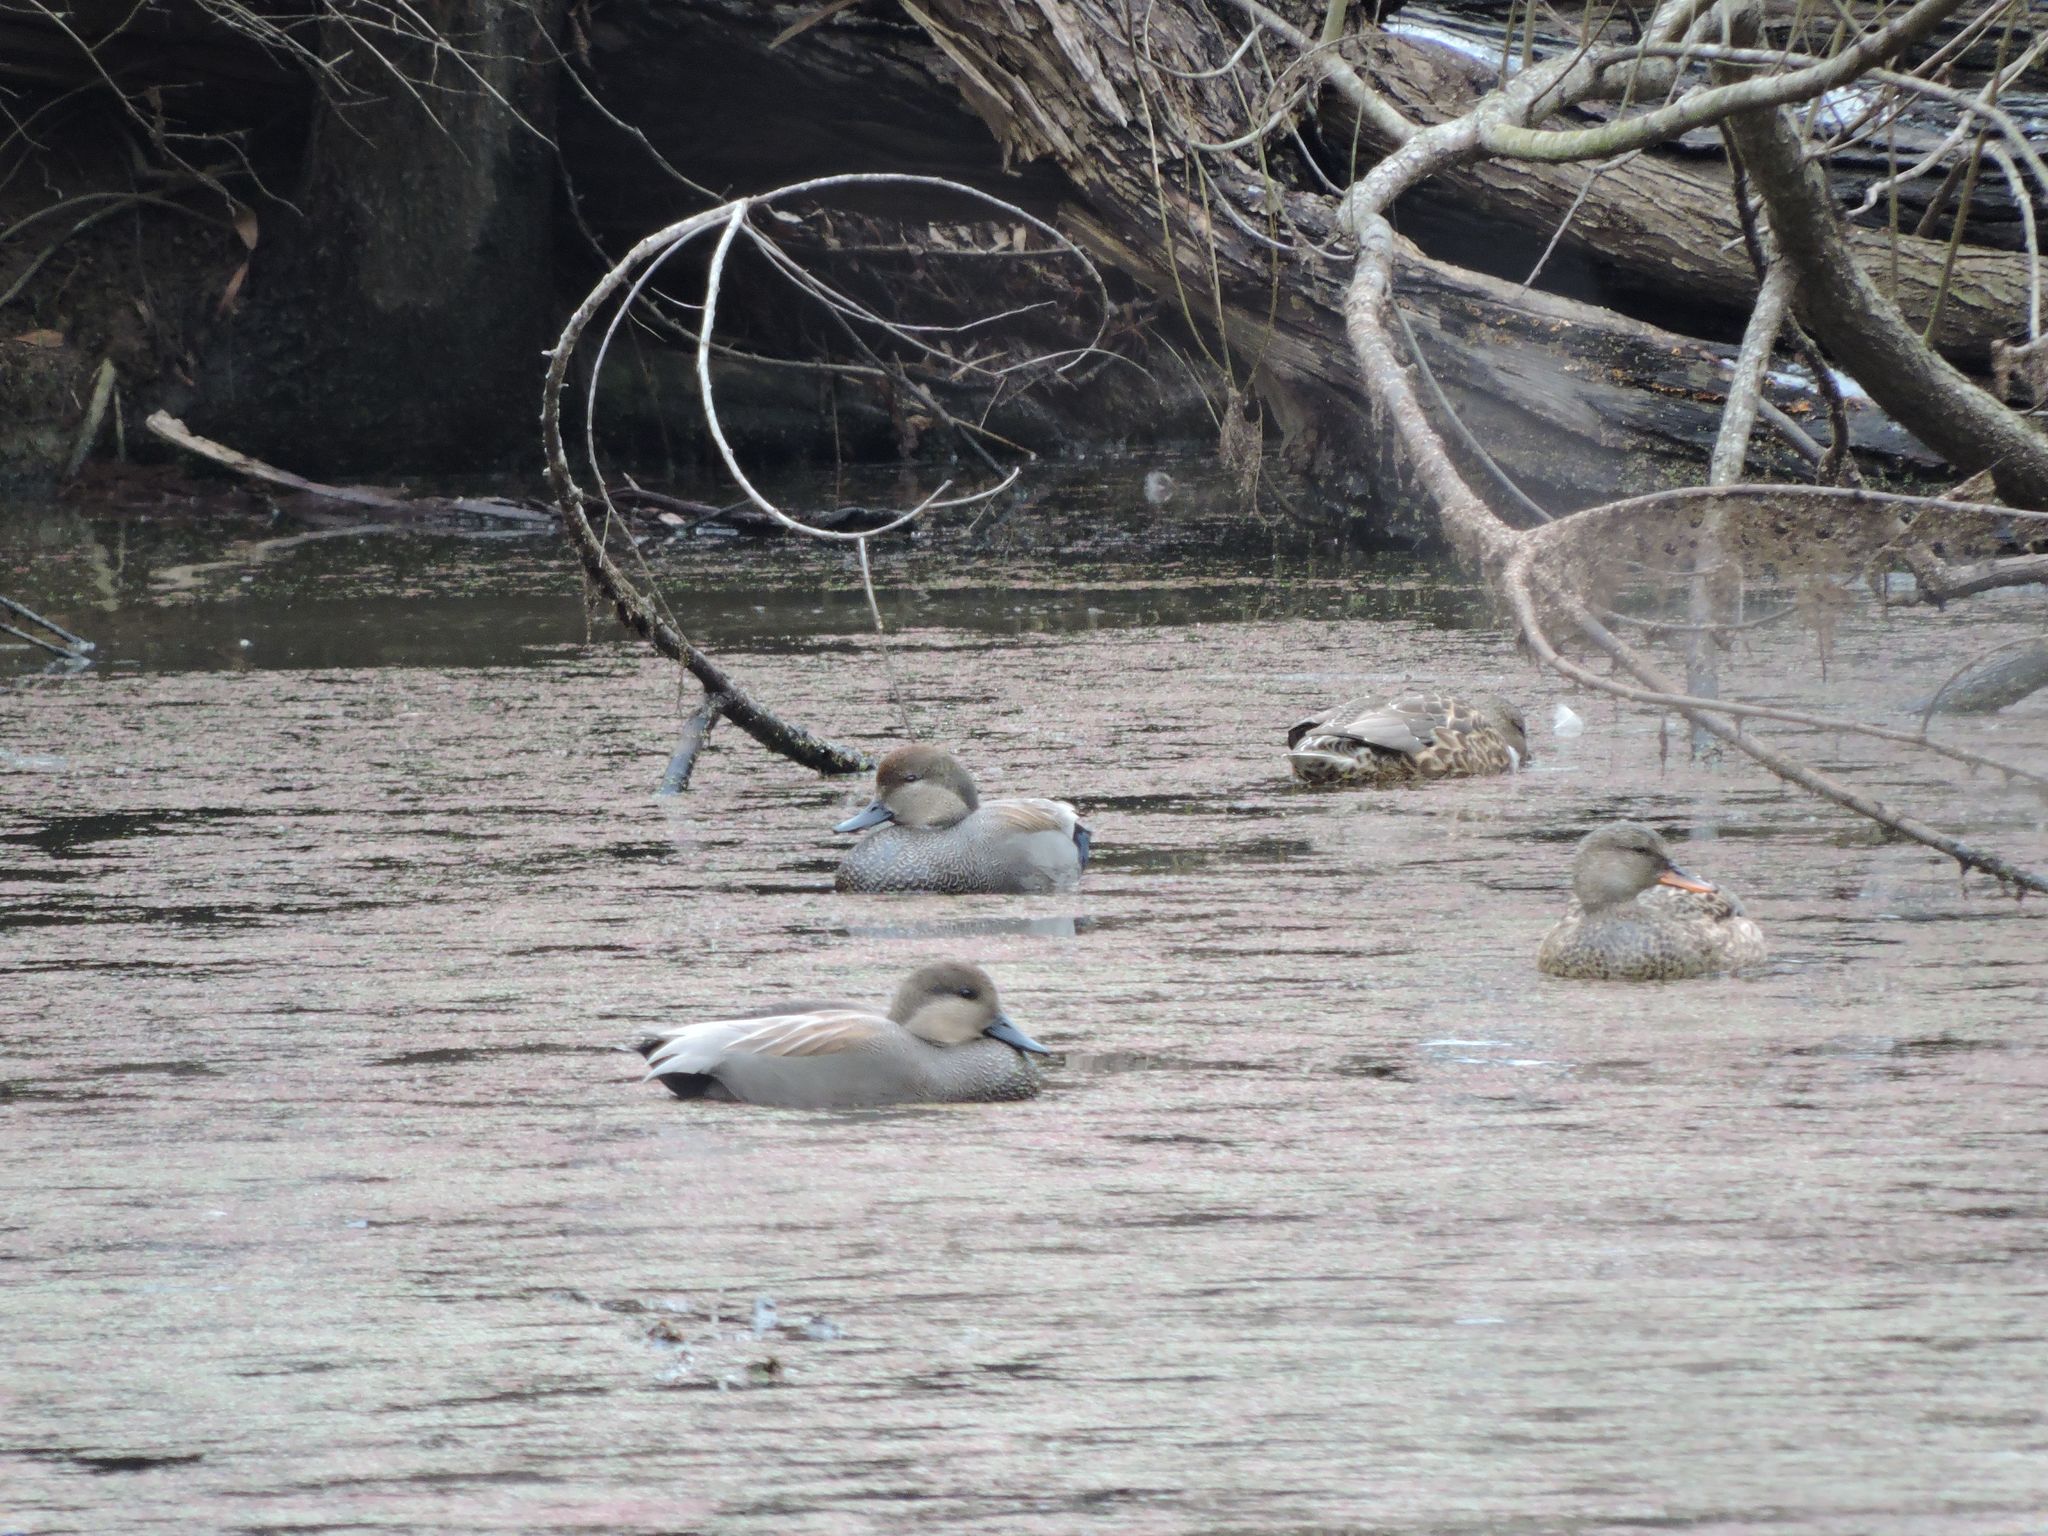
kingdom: Animalia
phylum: Chordata
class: Aves
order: Anseriformes
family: Anatidae
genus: Mareca
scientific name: Mareca strepera
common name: Gadwall
